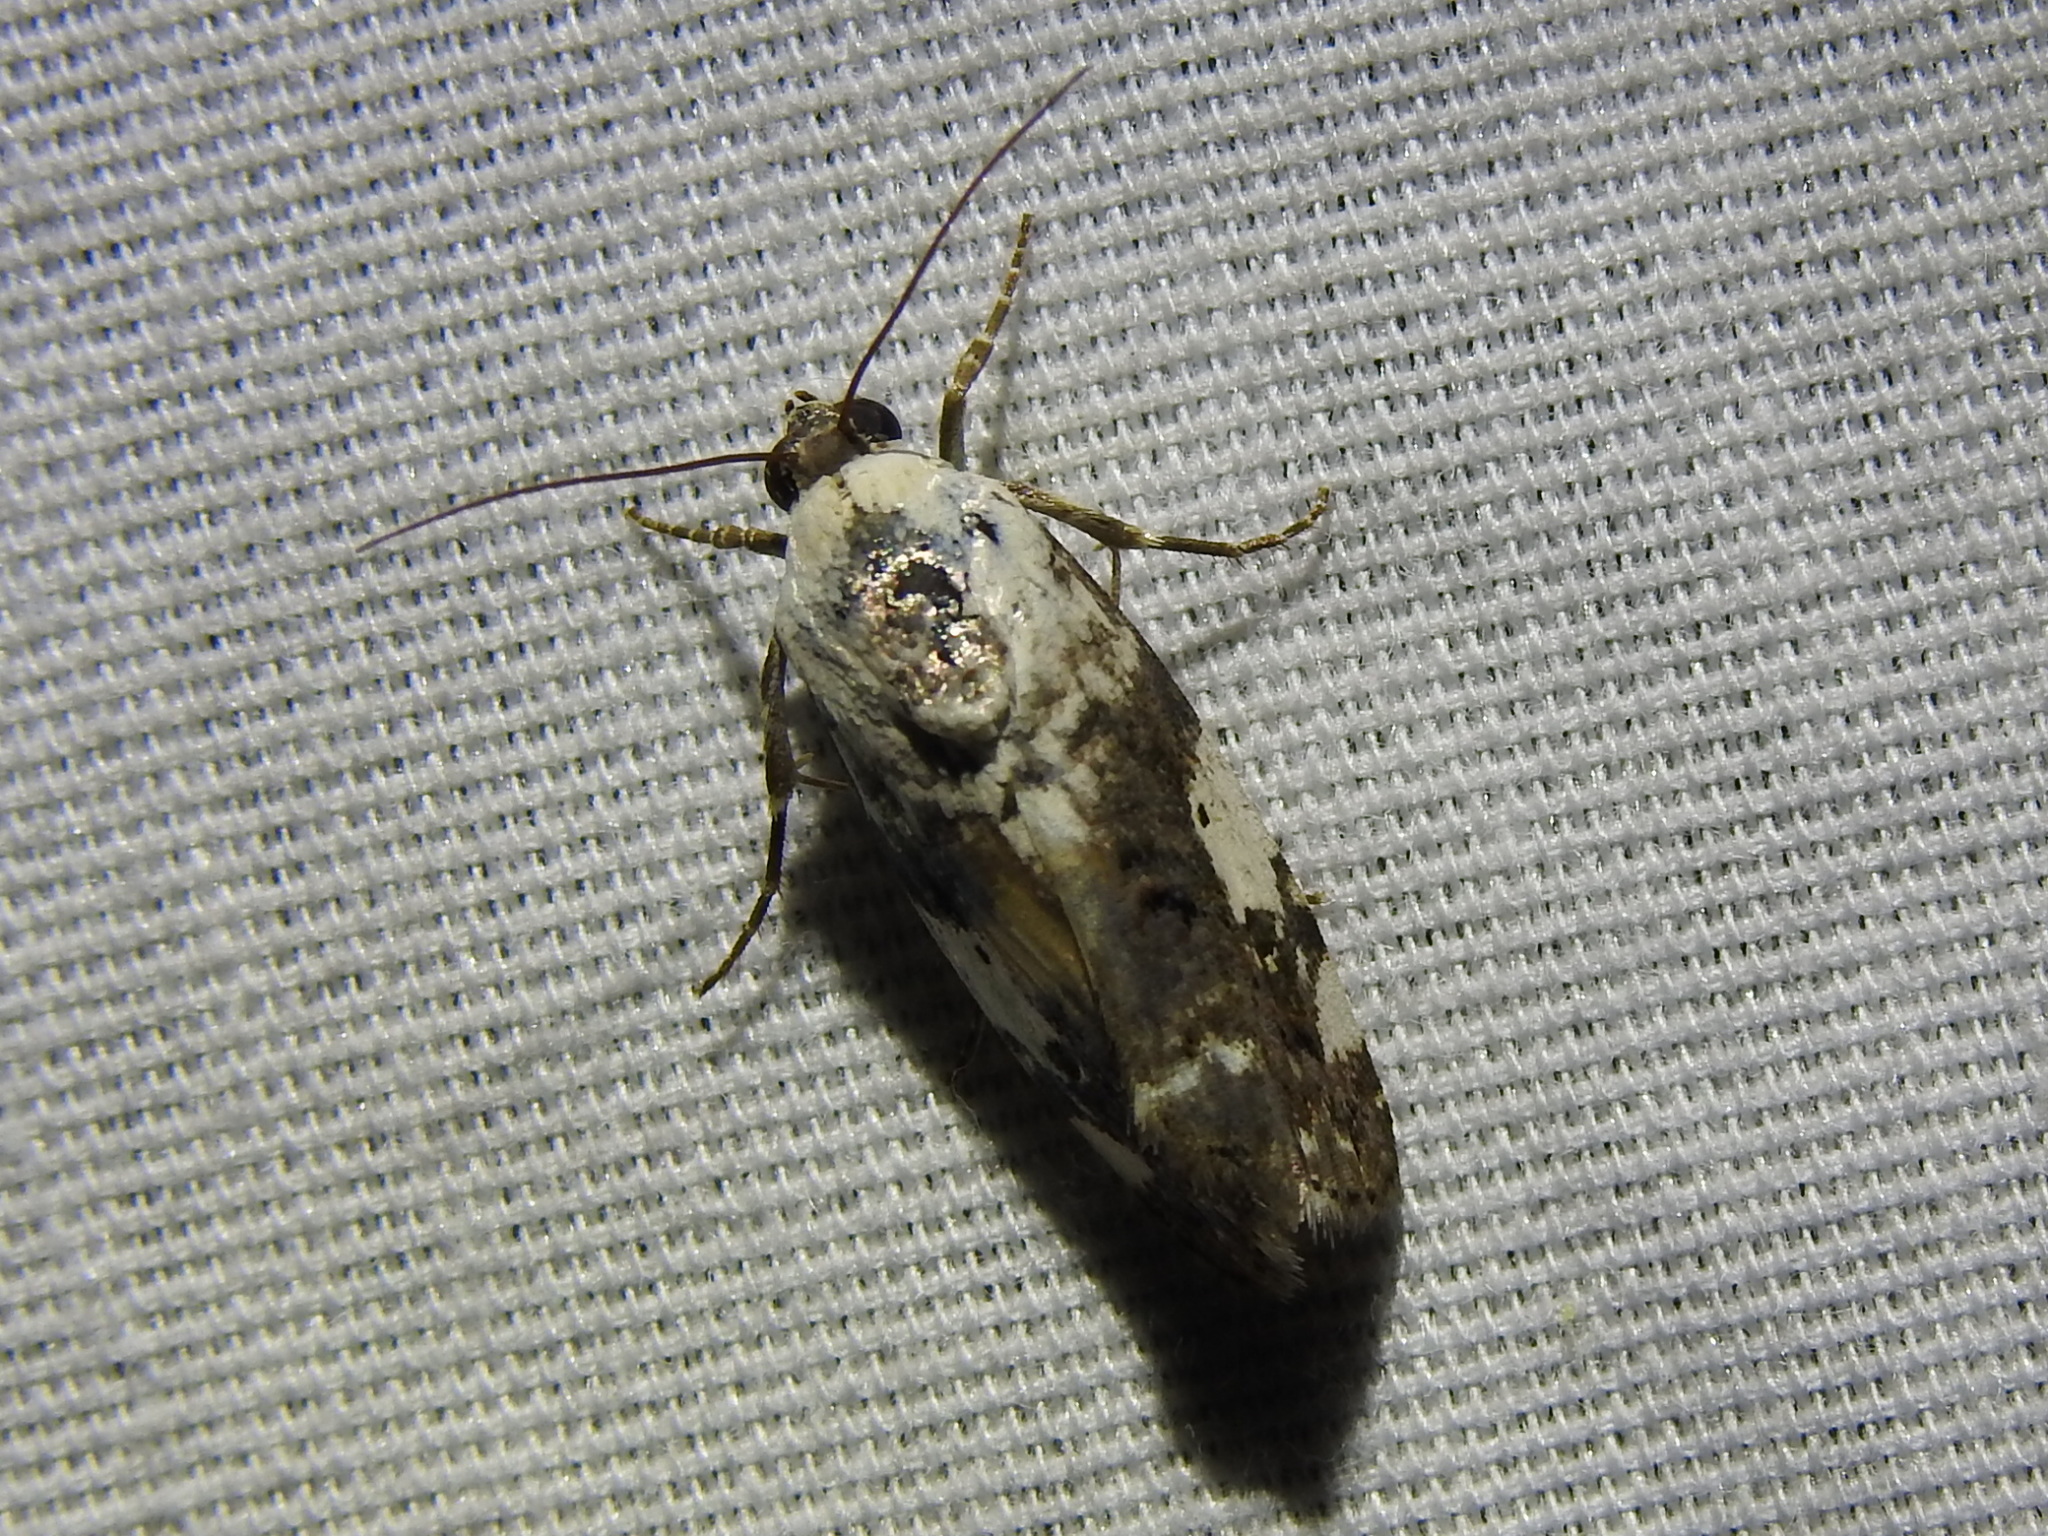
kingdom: Animalia
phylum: Arthropoda
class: Insecta
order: Lepidoptera
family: Noctuidae
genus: Acontia
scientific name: Acontia aprica
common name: Nun
